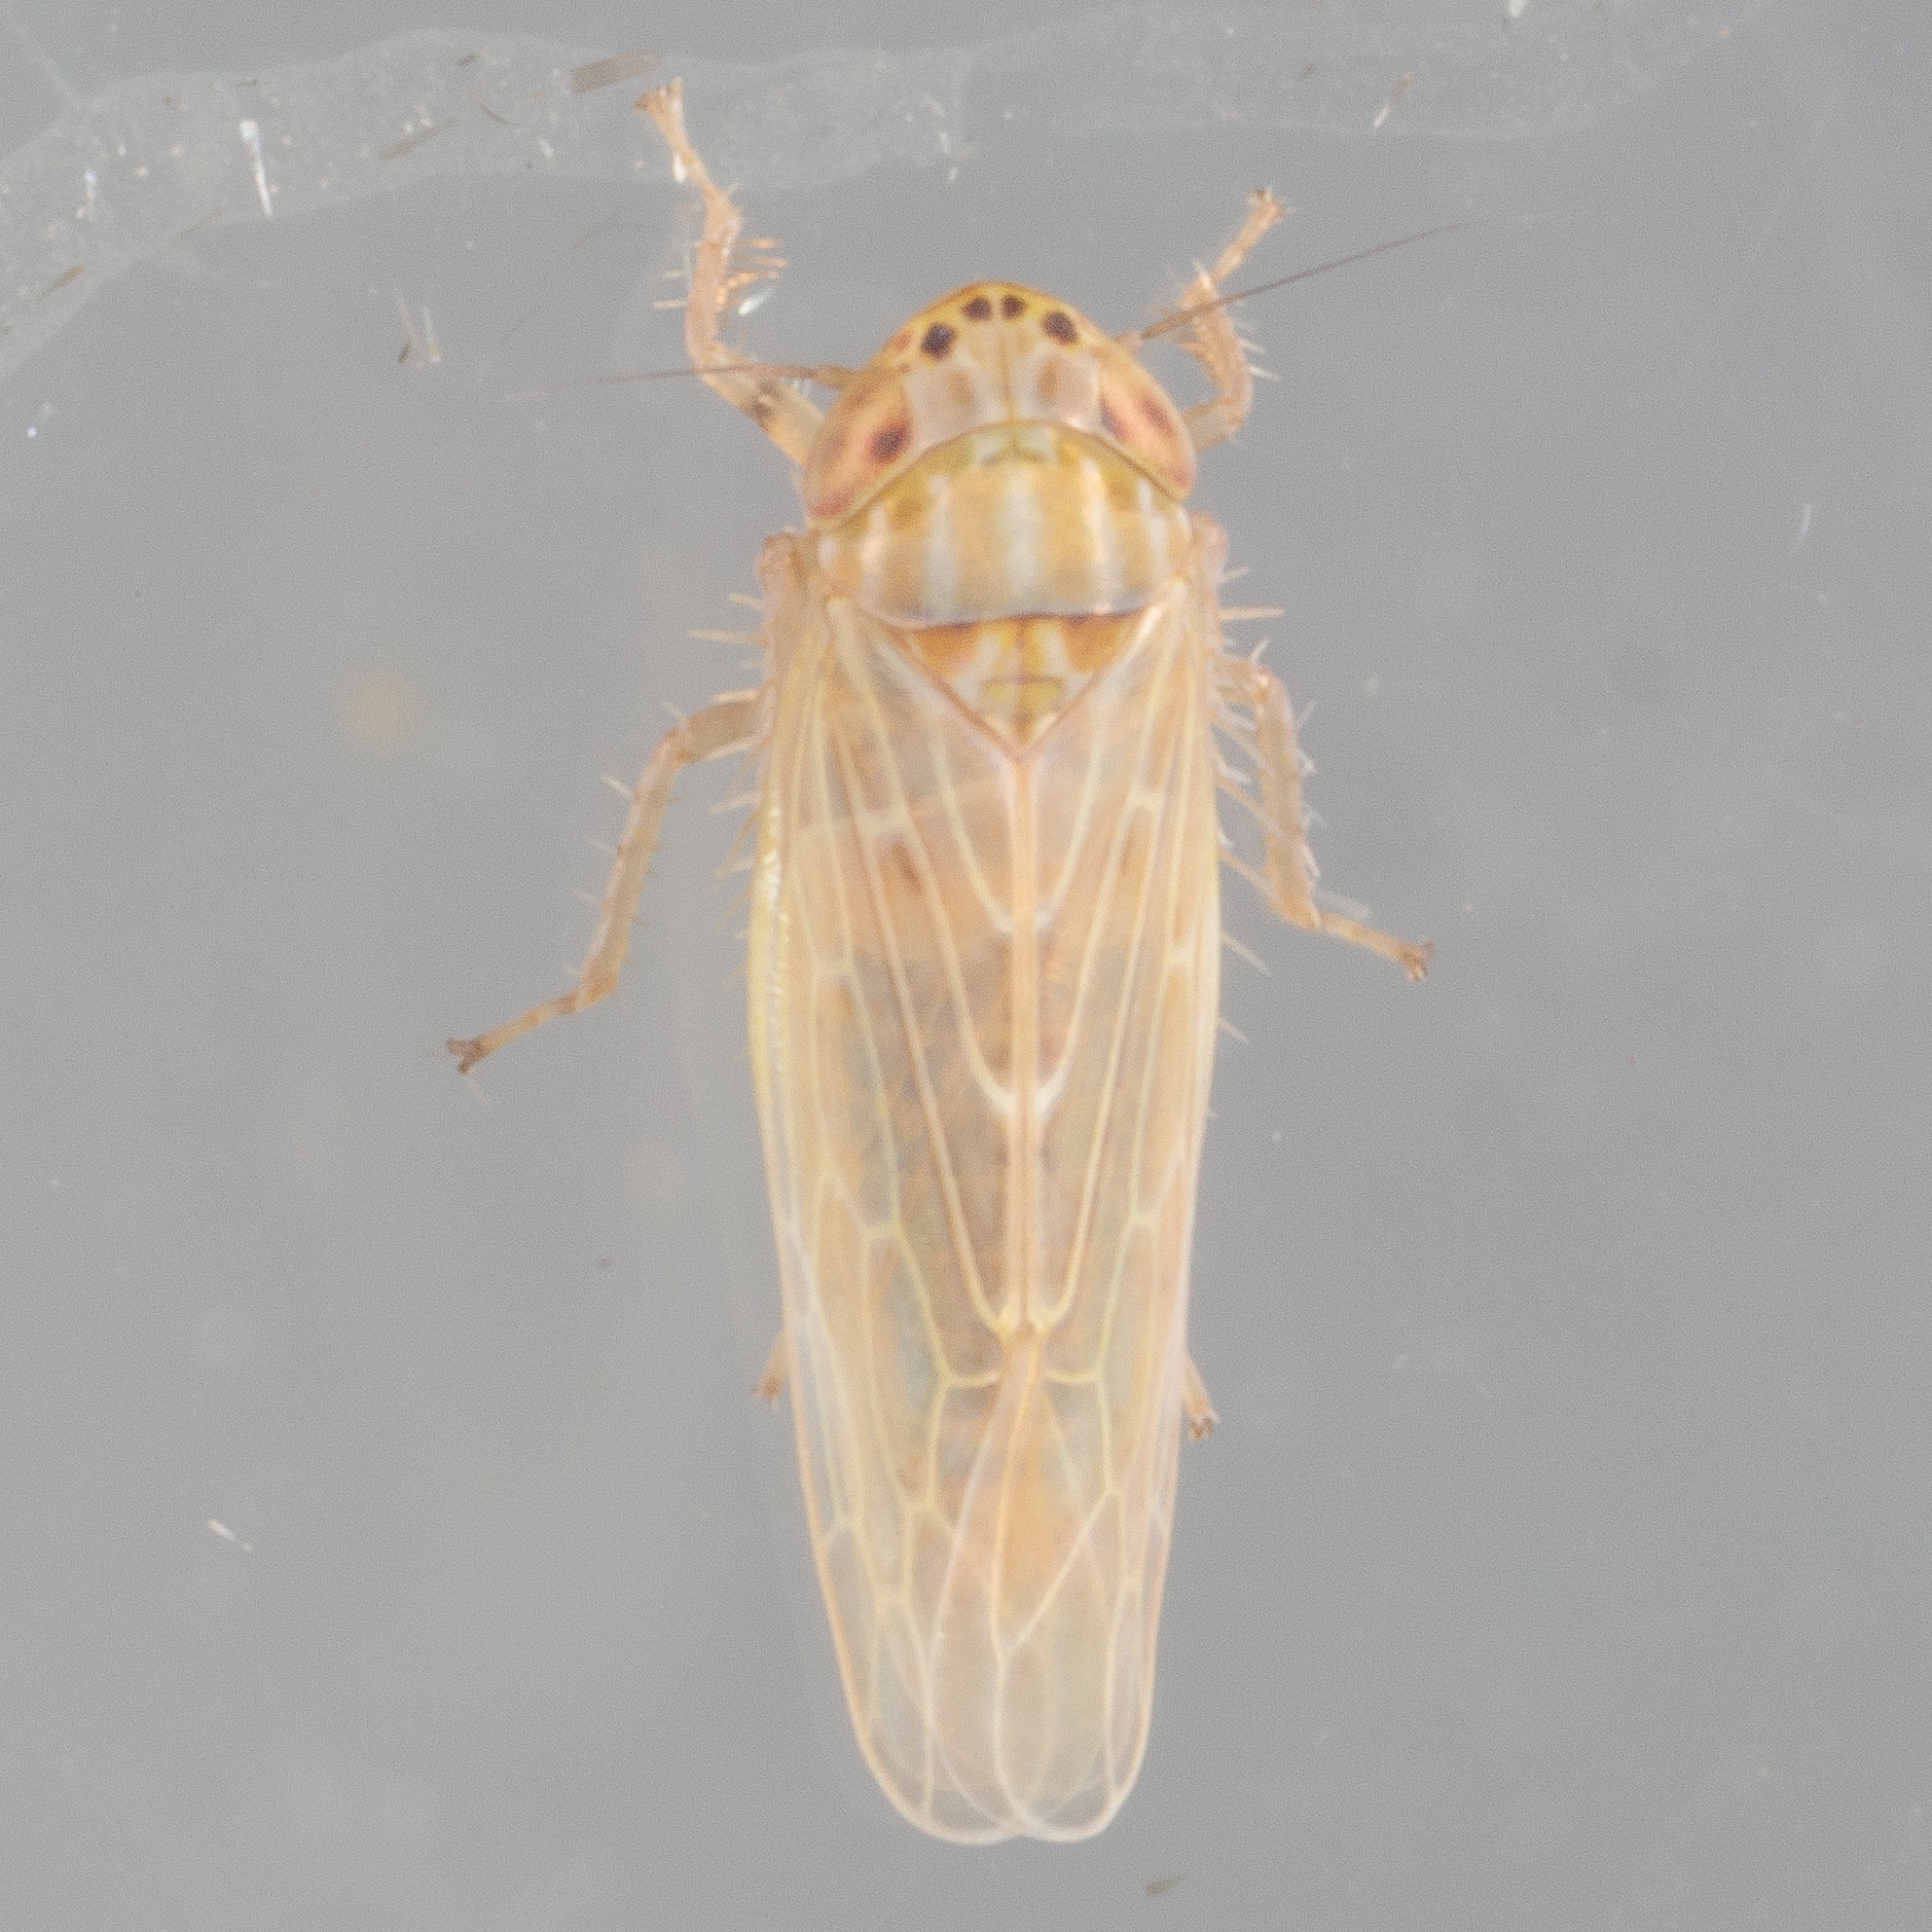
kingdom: Animalia
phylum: Arthropoda
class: Insecta
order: Hemiptera
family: Cicadellidae
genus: Graminella
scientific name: Graminella sonora
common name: Lesser lawn leafhopper
